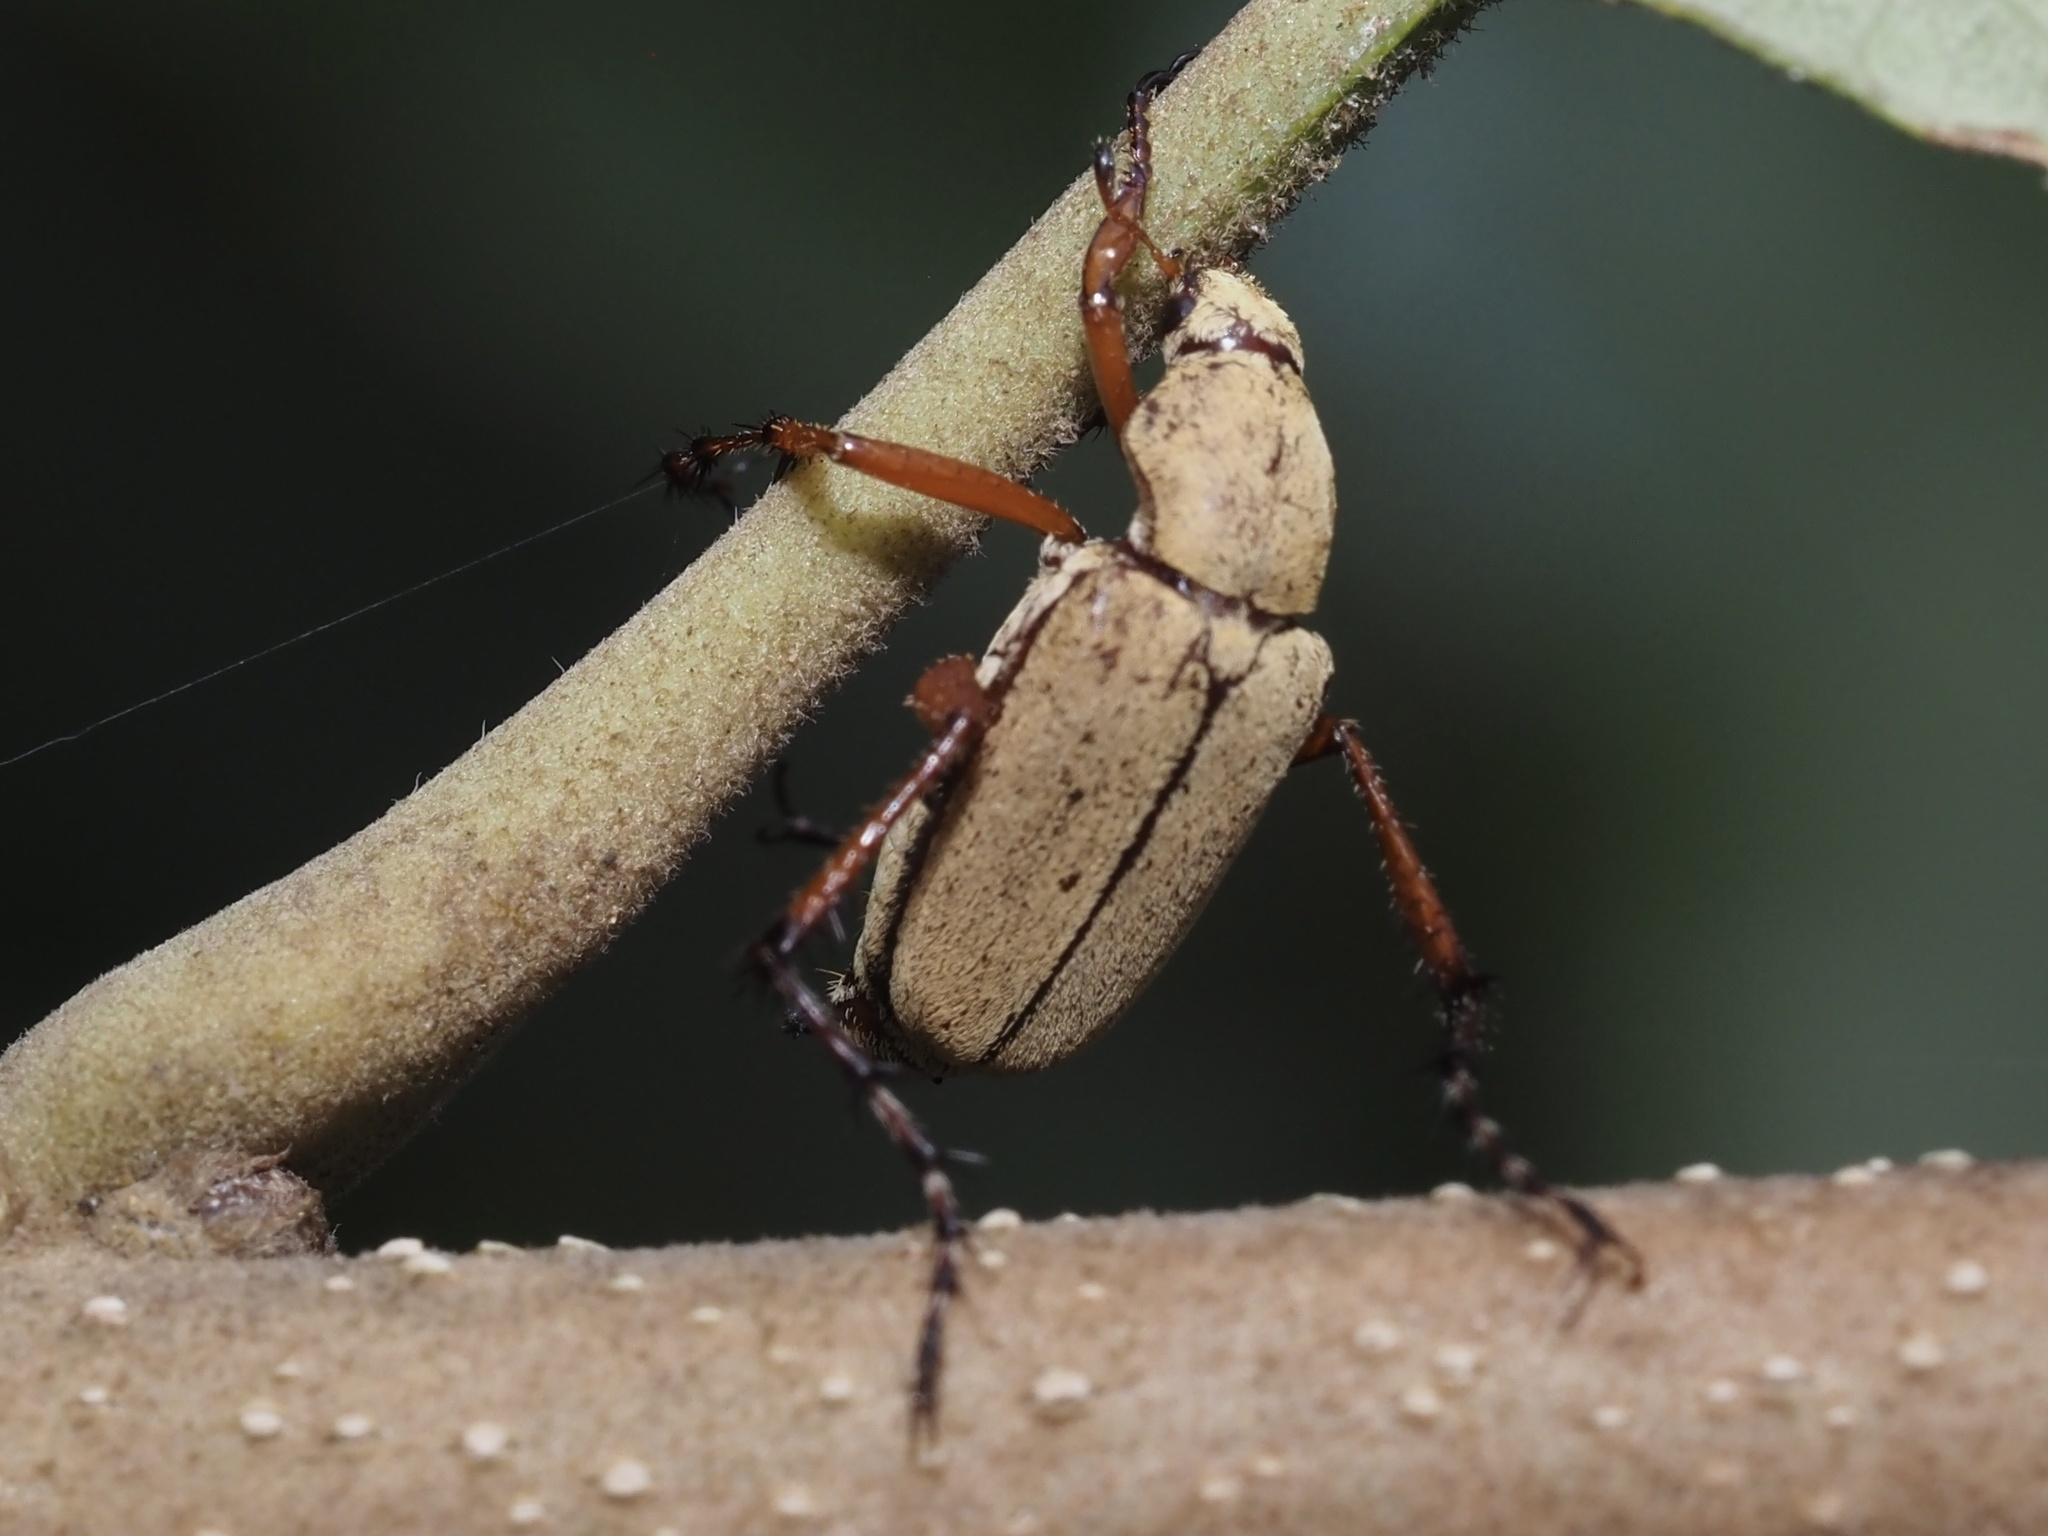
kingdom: Animalia
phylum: Arthropoda
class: Insecta
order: Coleoptera
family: Scarabaeidae
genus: Macrodactylus
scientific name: Macrodactylus subspinosus
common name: American rose chafer
